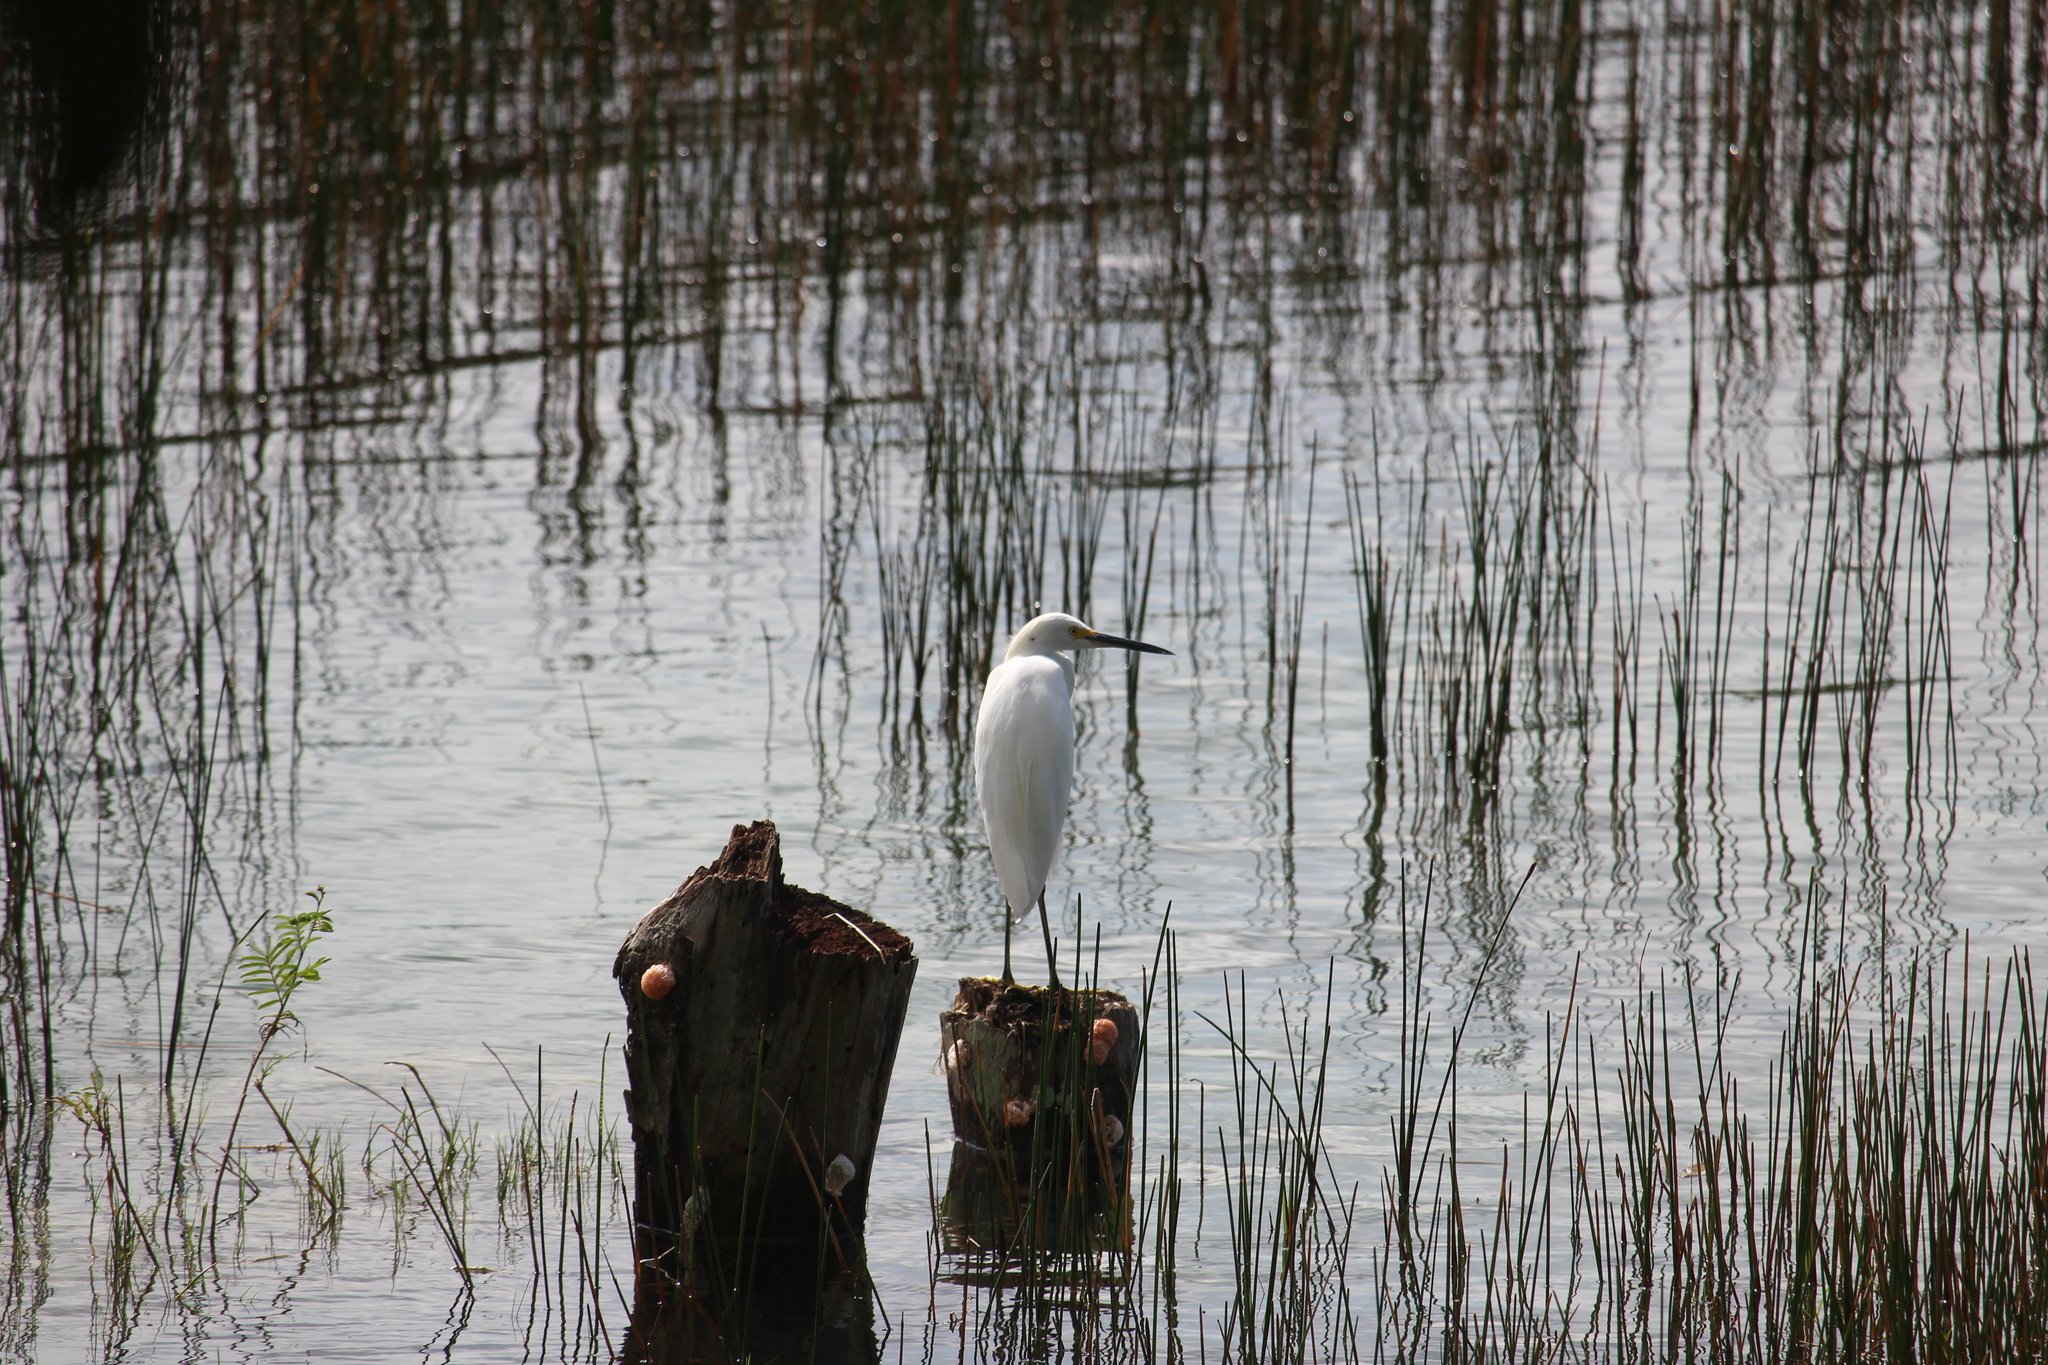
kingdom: Animalia
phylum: Chordata
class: Aves
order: Pelecaniformes
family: Ardeidae
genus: Egretta
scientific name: Egretta thula
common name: Snowy egret
